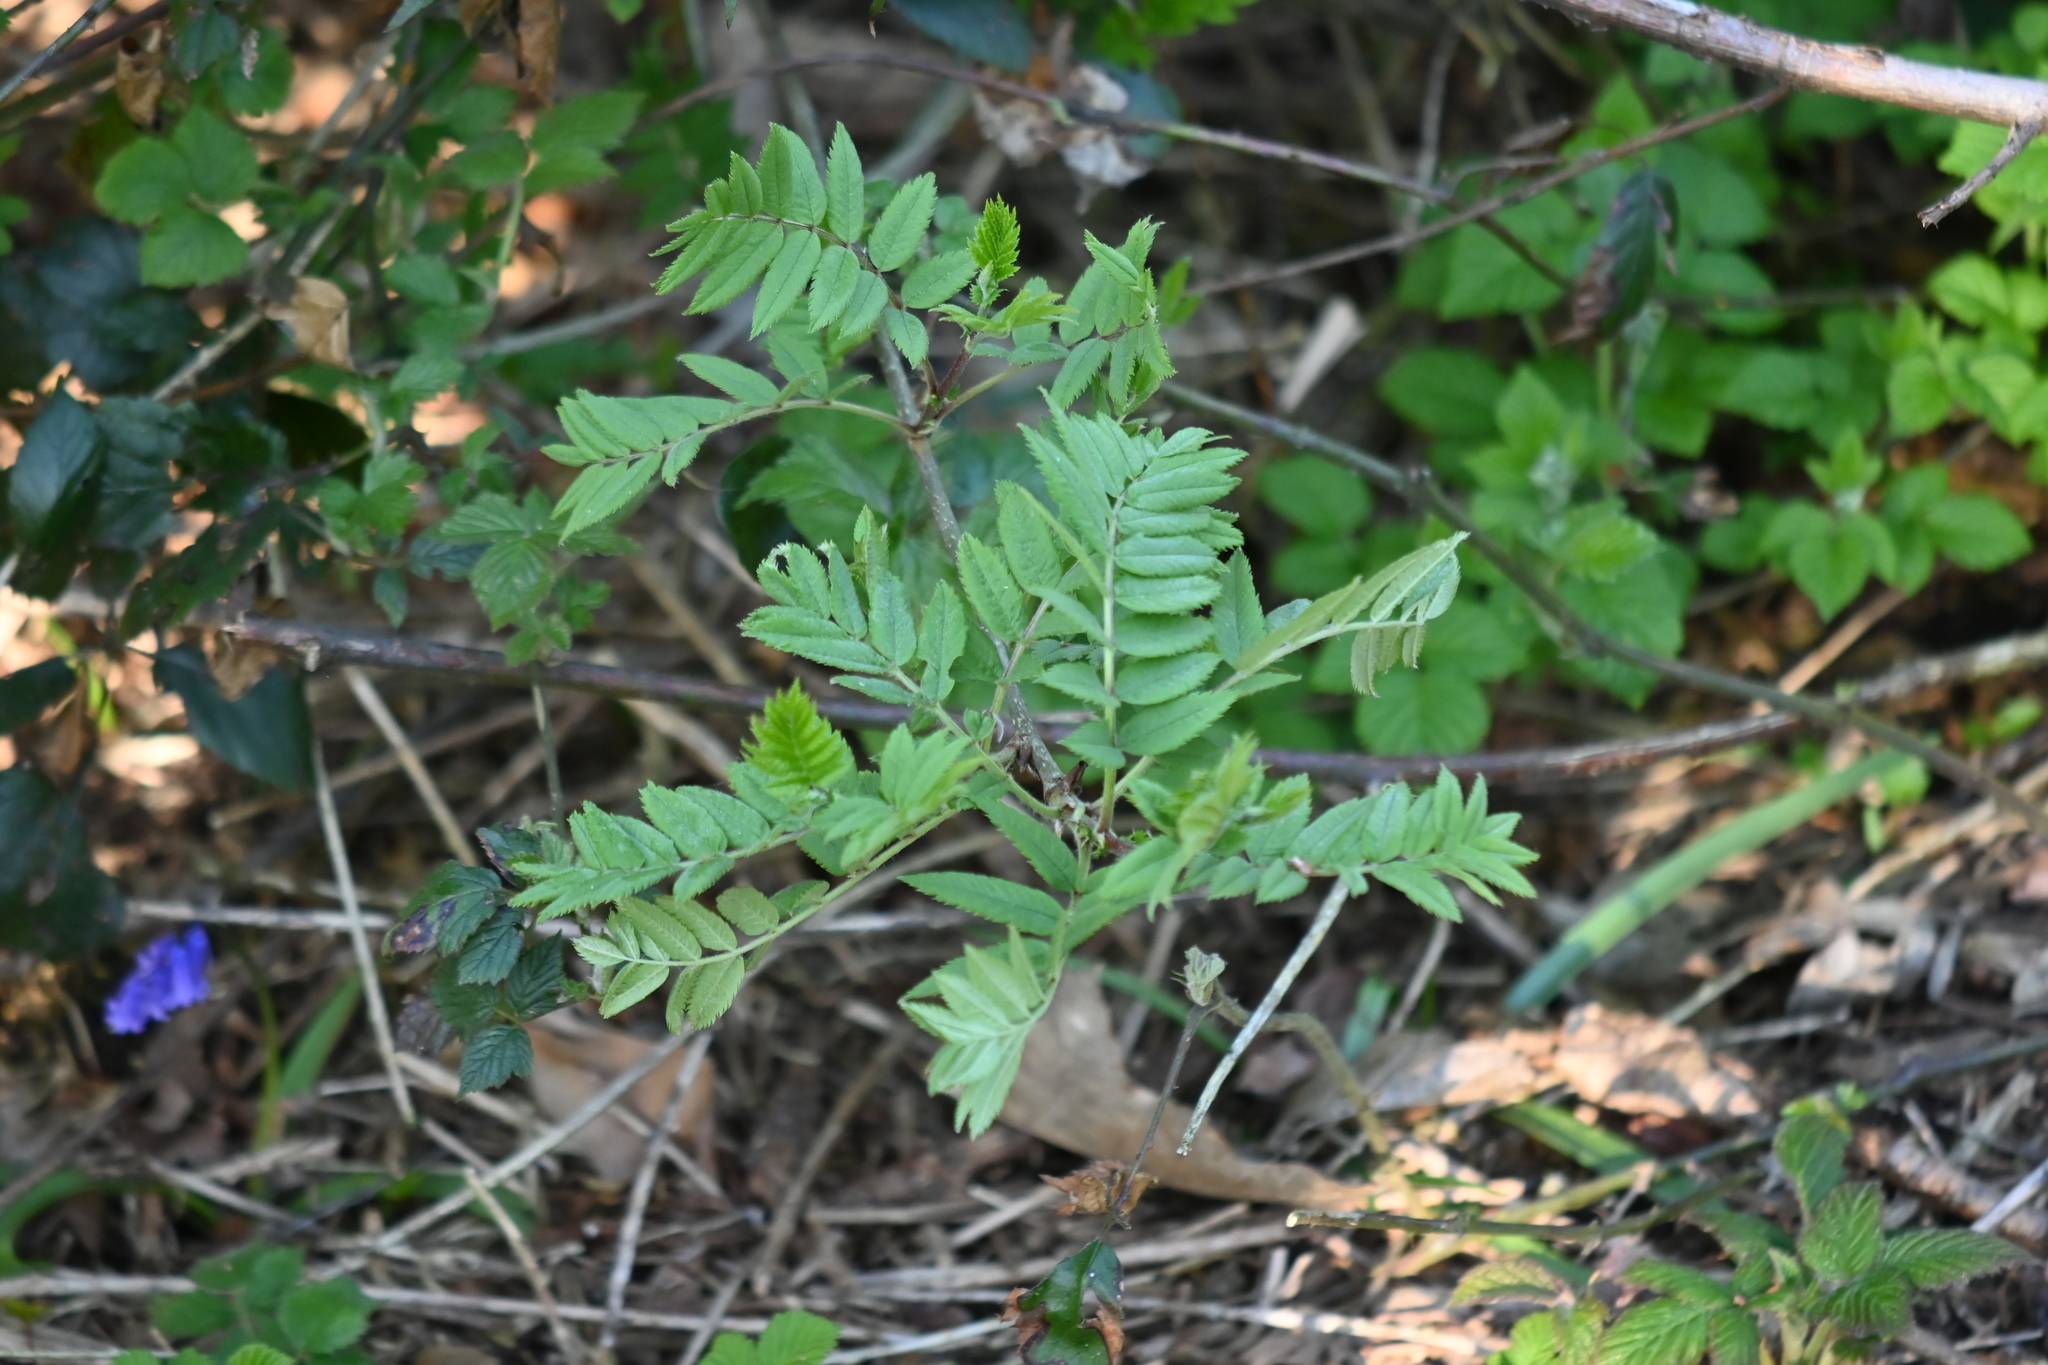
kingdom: Plantae
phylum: Tracheophyta
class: Magnoliopsida
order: Rosales
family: Rosaceae
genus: Sorbus
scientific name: Sorbus aucuparia
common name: Rowan
